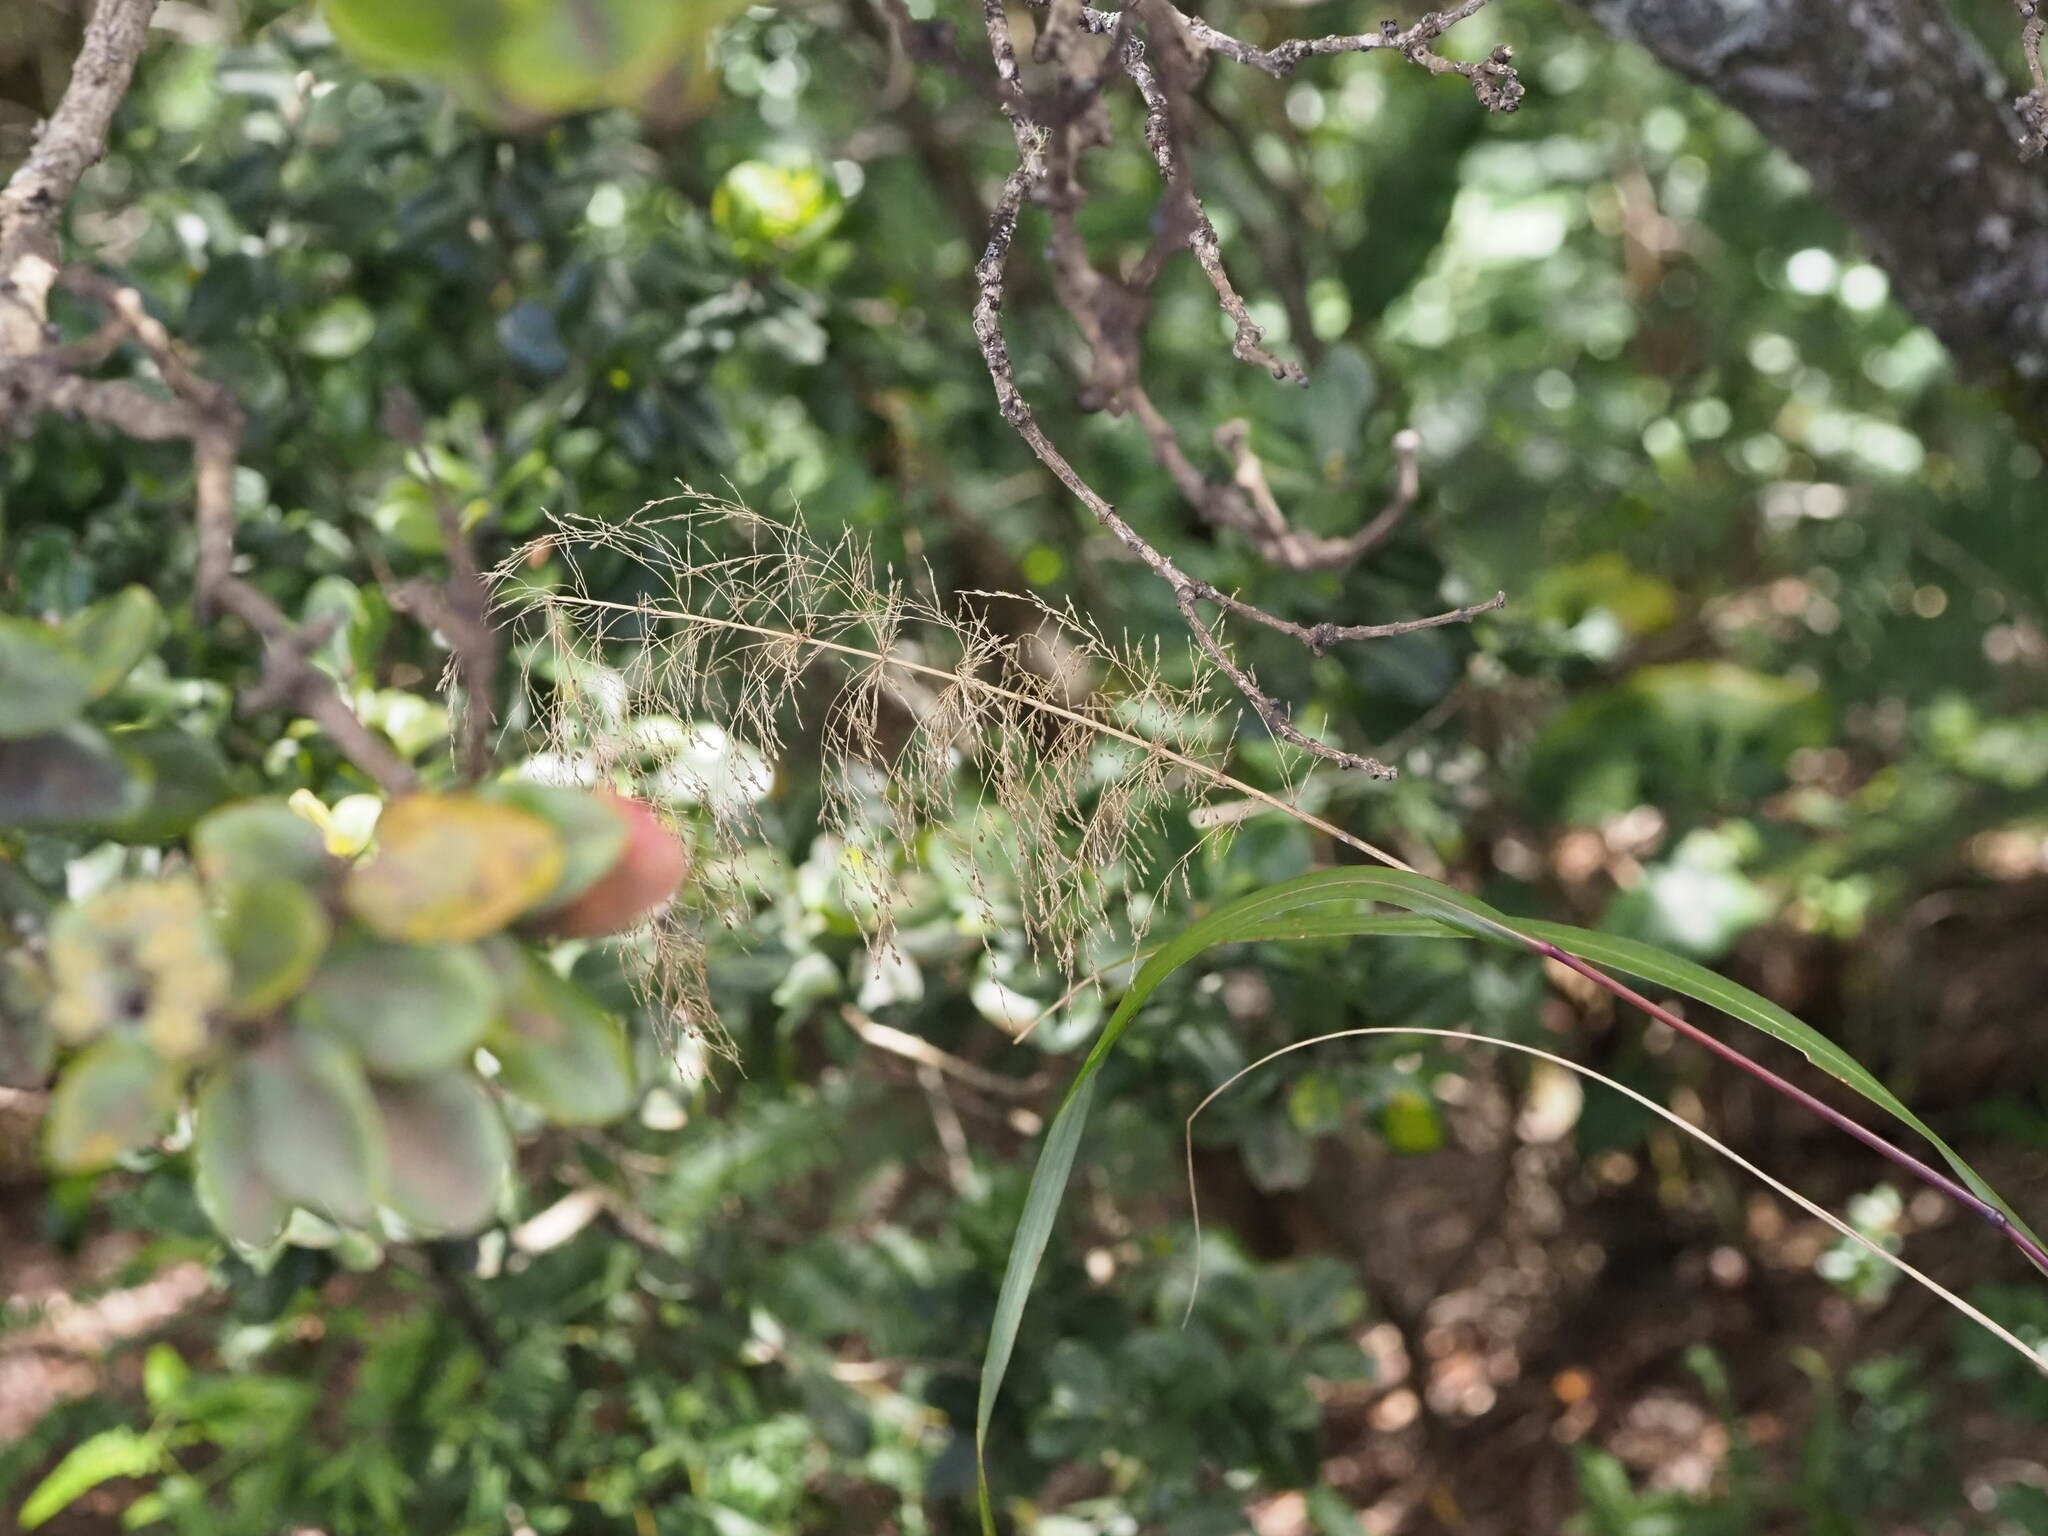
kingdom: Plantae
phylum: Tracheophyta
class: Liliopsida
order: Poales
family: Poaceae
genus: Eragrostis
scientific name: Eragrostis grandis
